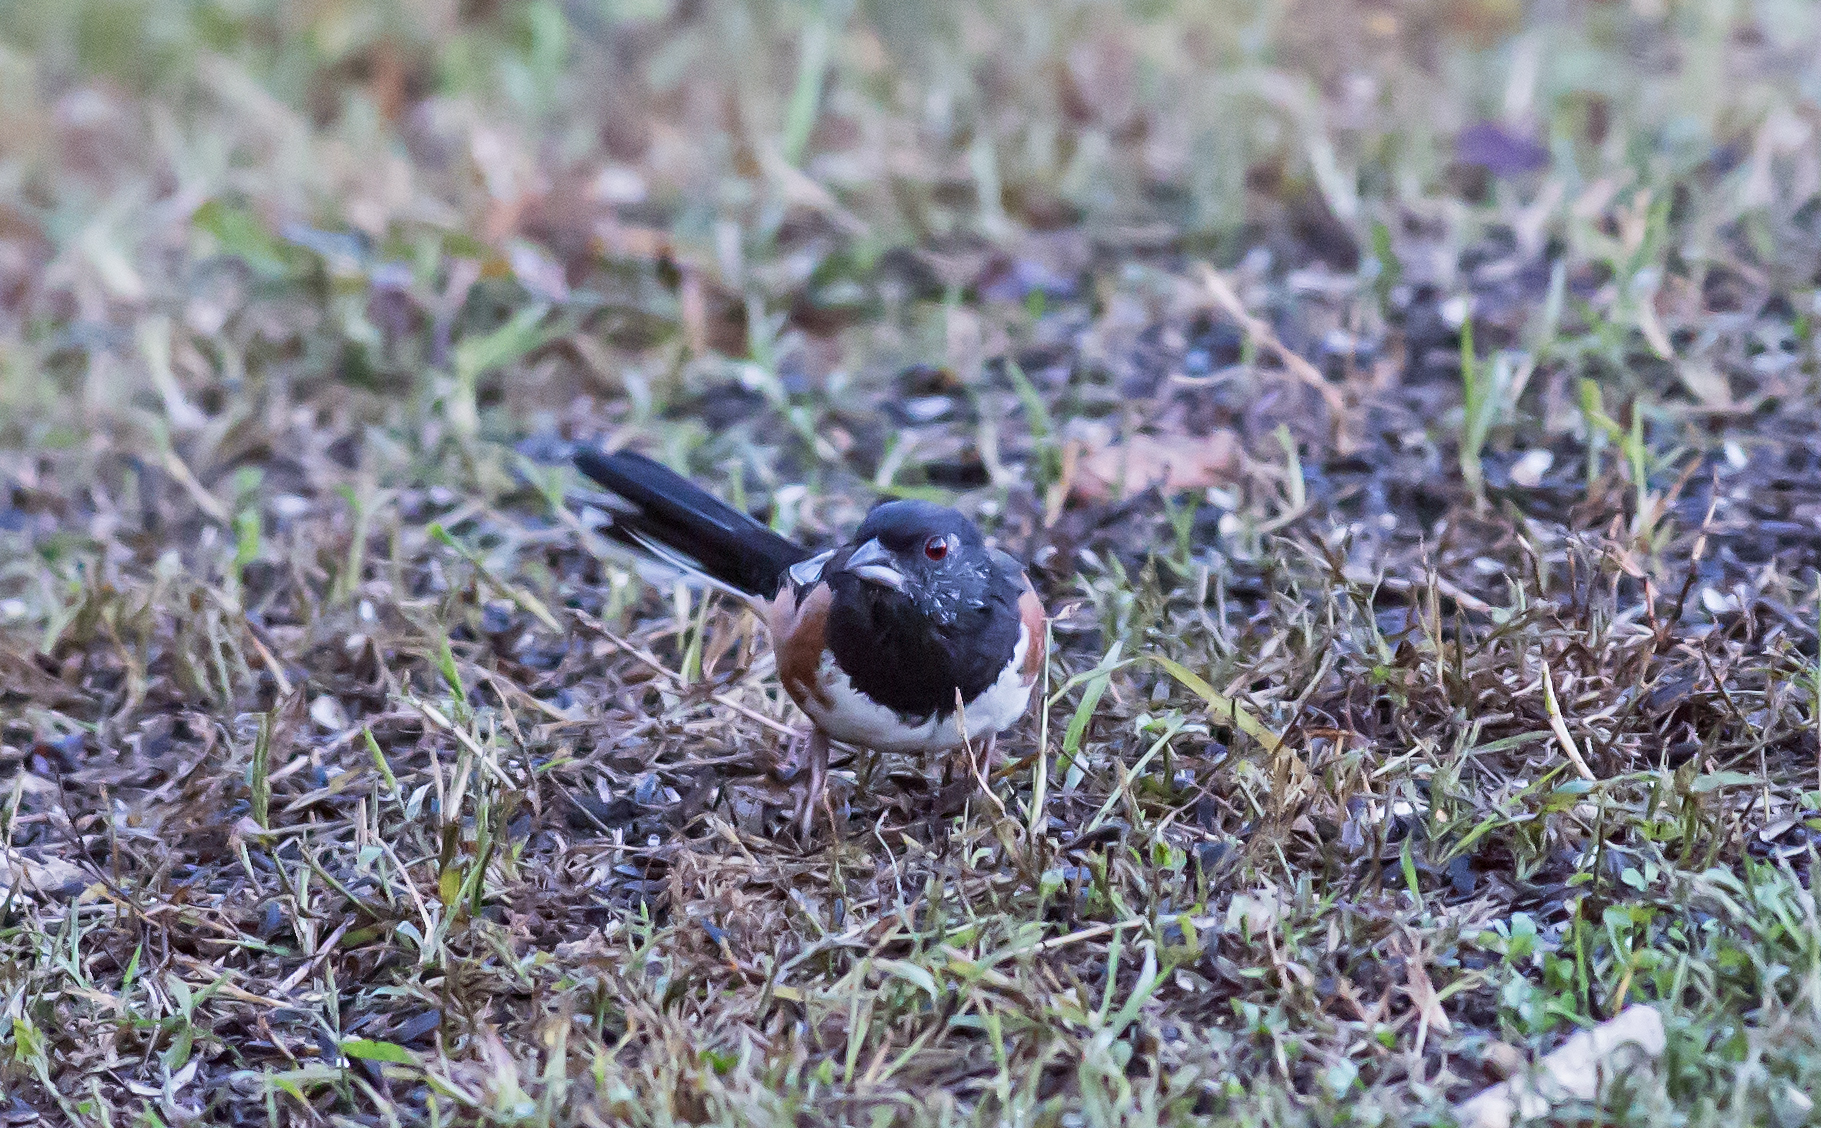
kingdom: Animalia
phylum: Chordata
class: Aves
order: Passeriformes
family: Passerellidae
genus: Pipilo
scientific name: Pipilo erythrophthalmus
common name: Eastern towhee
